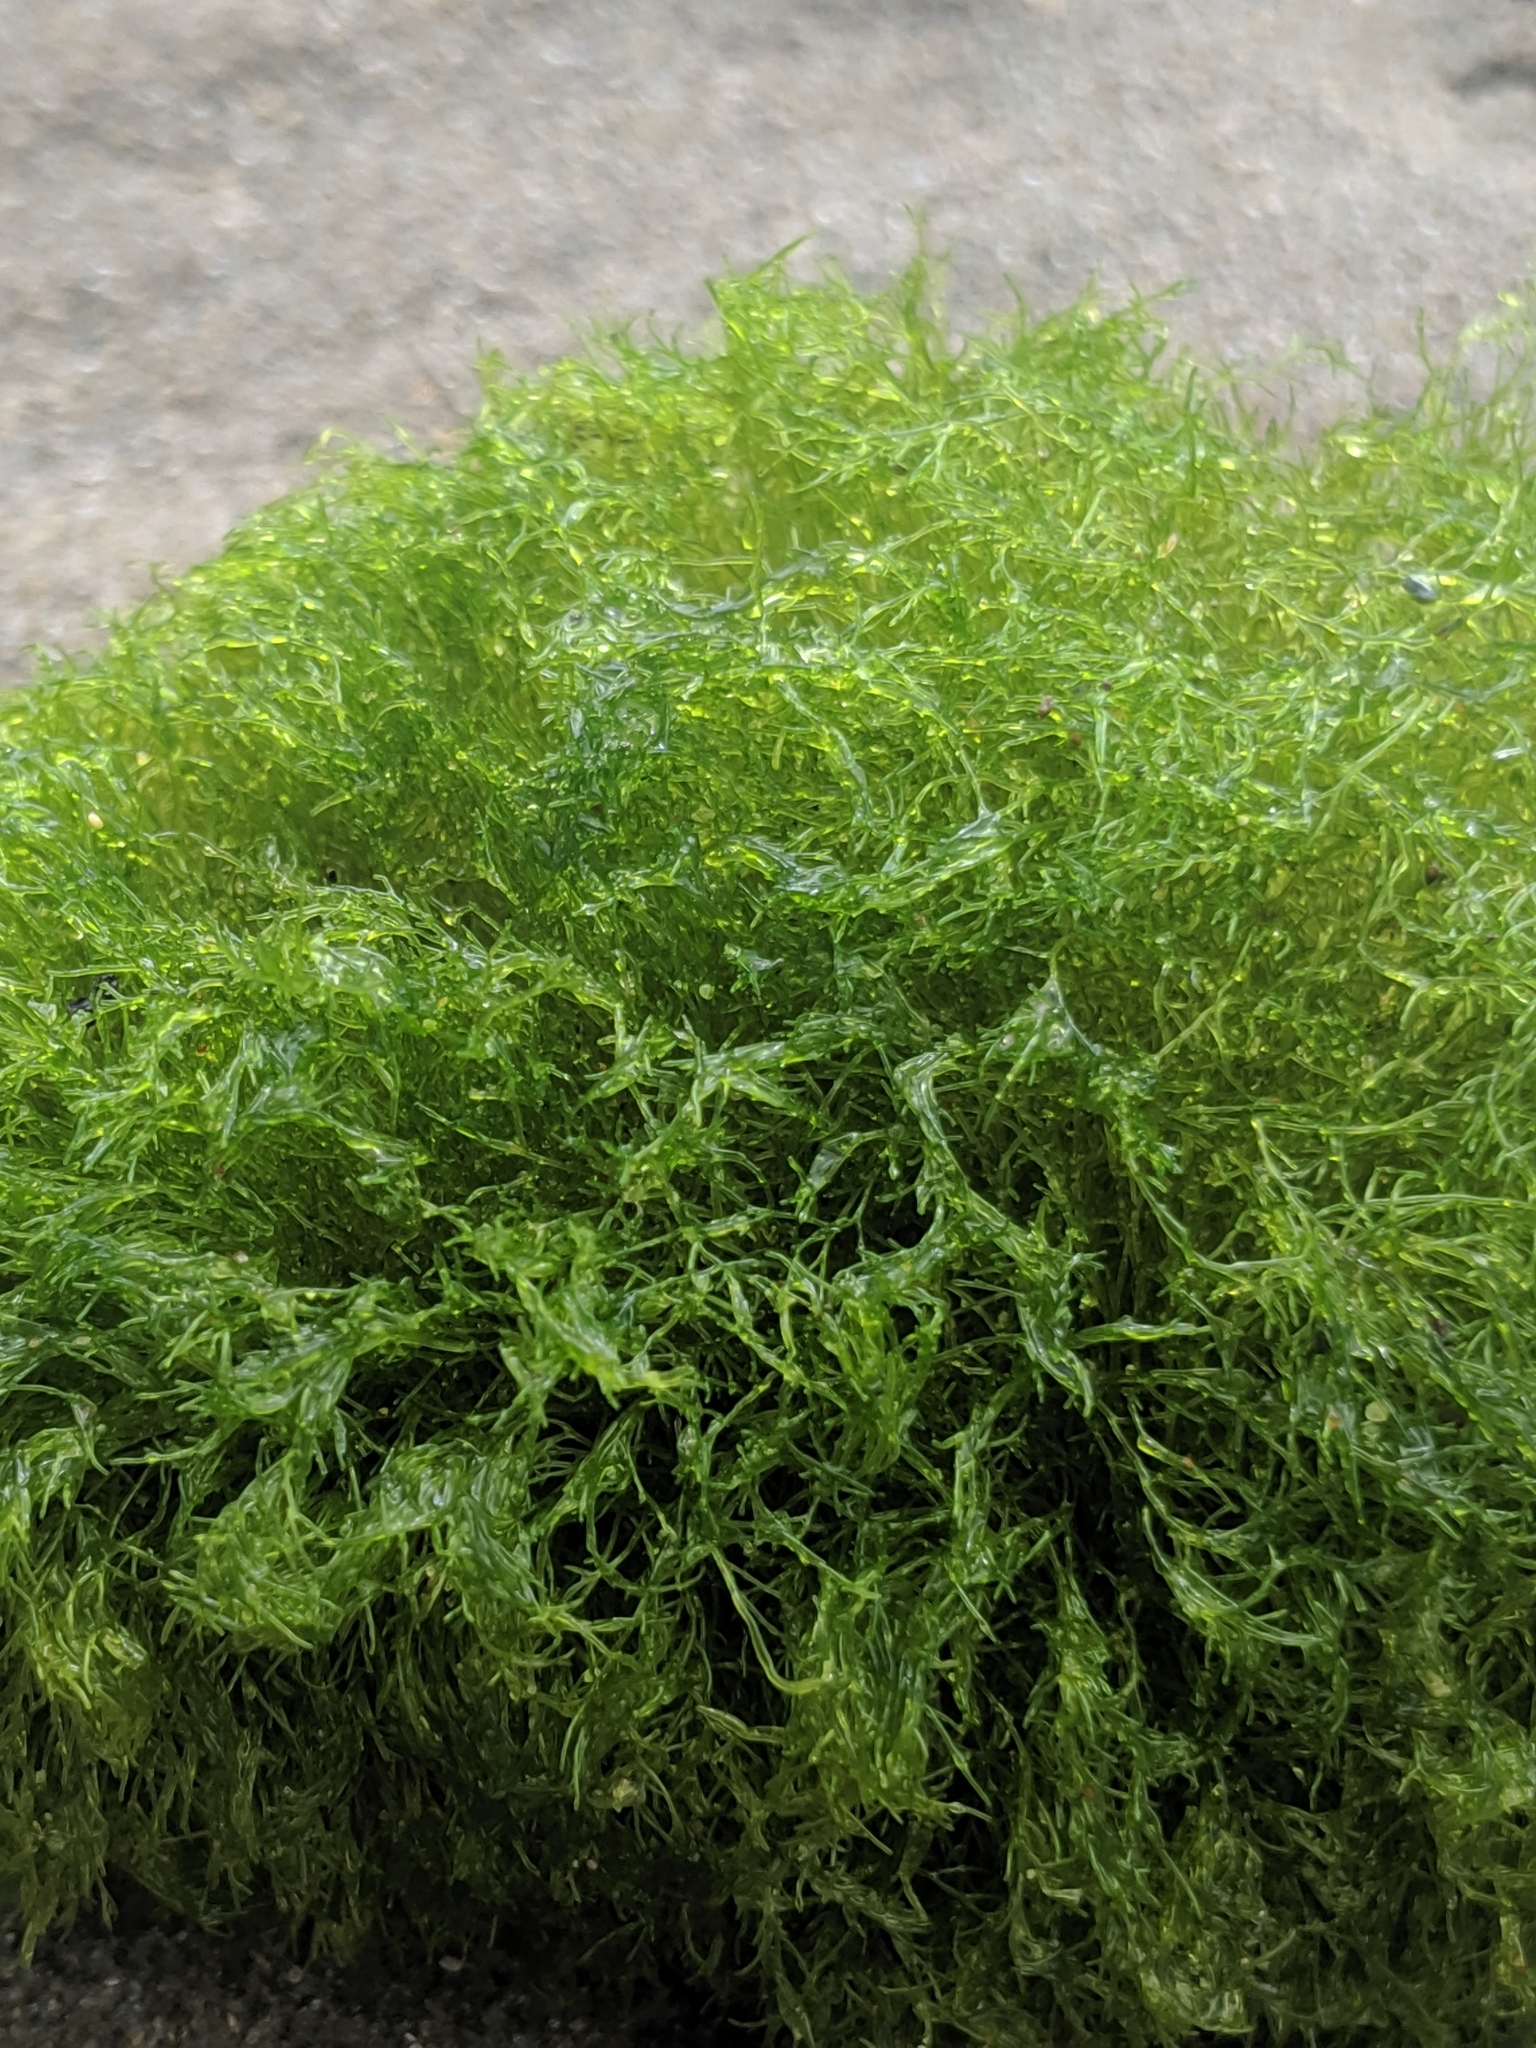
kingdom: Plantae
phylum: Chlorophyta
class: Ulvophyceae
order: Cladophorales
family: Cladophoraceae
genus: Cladophora
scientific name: Cladophora columbiana
